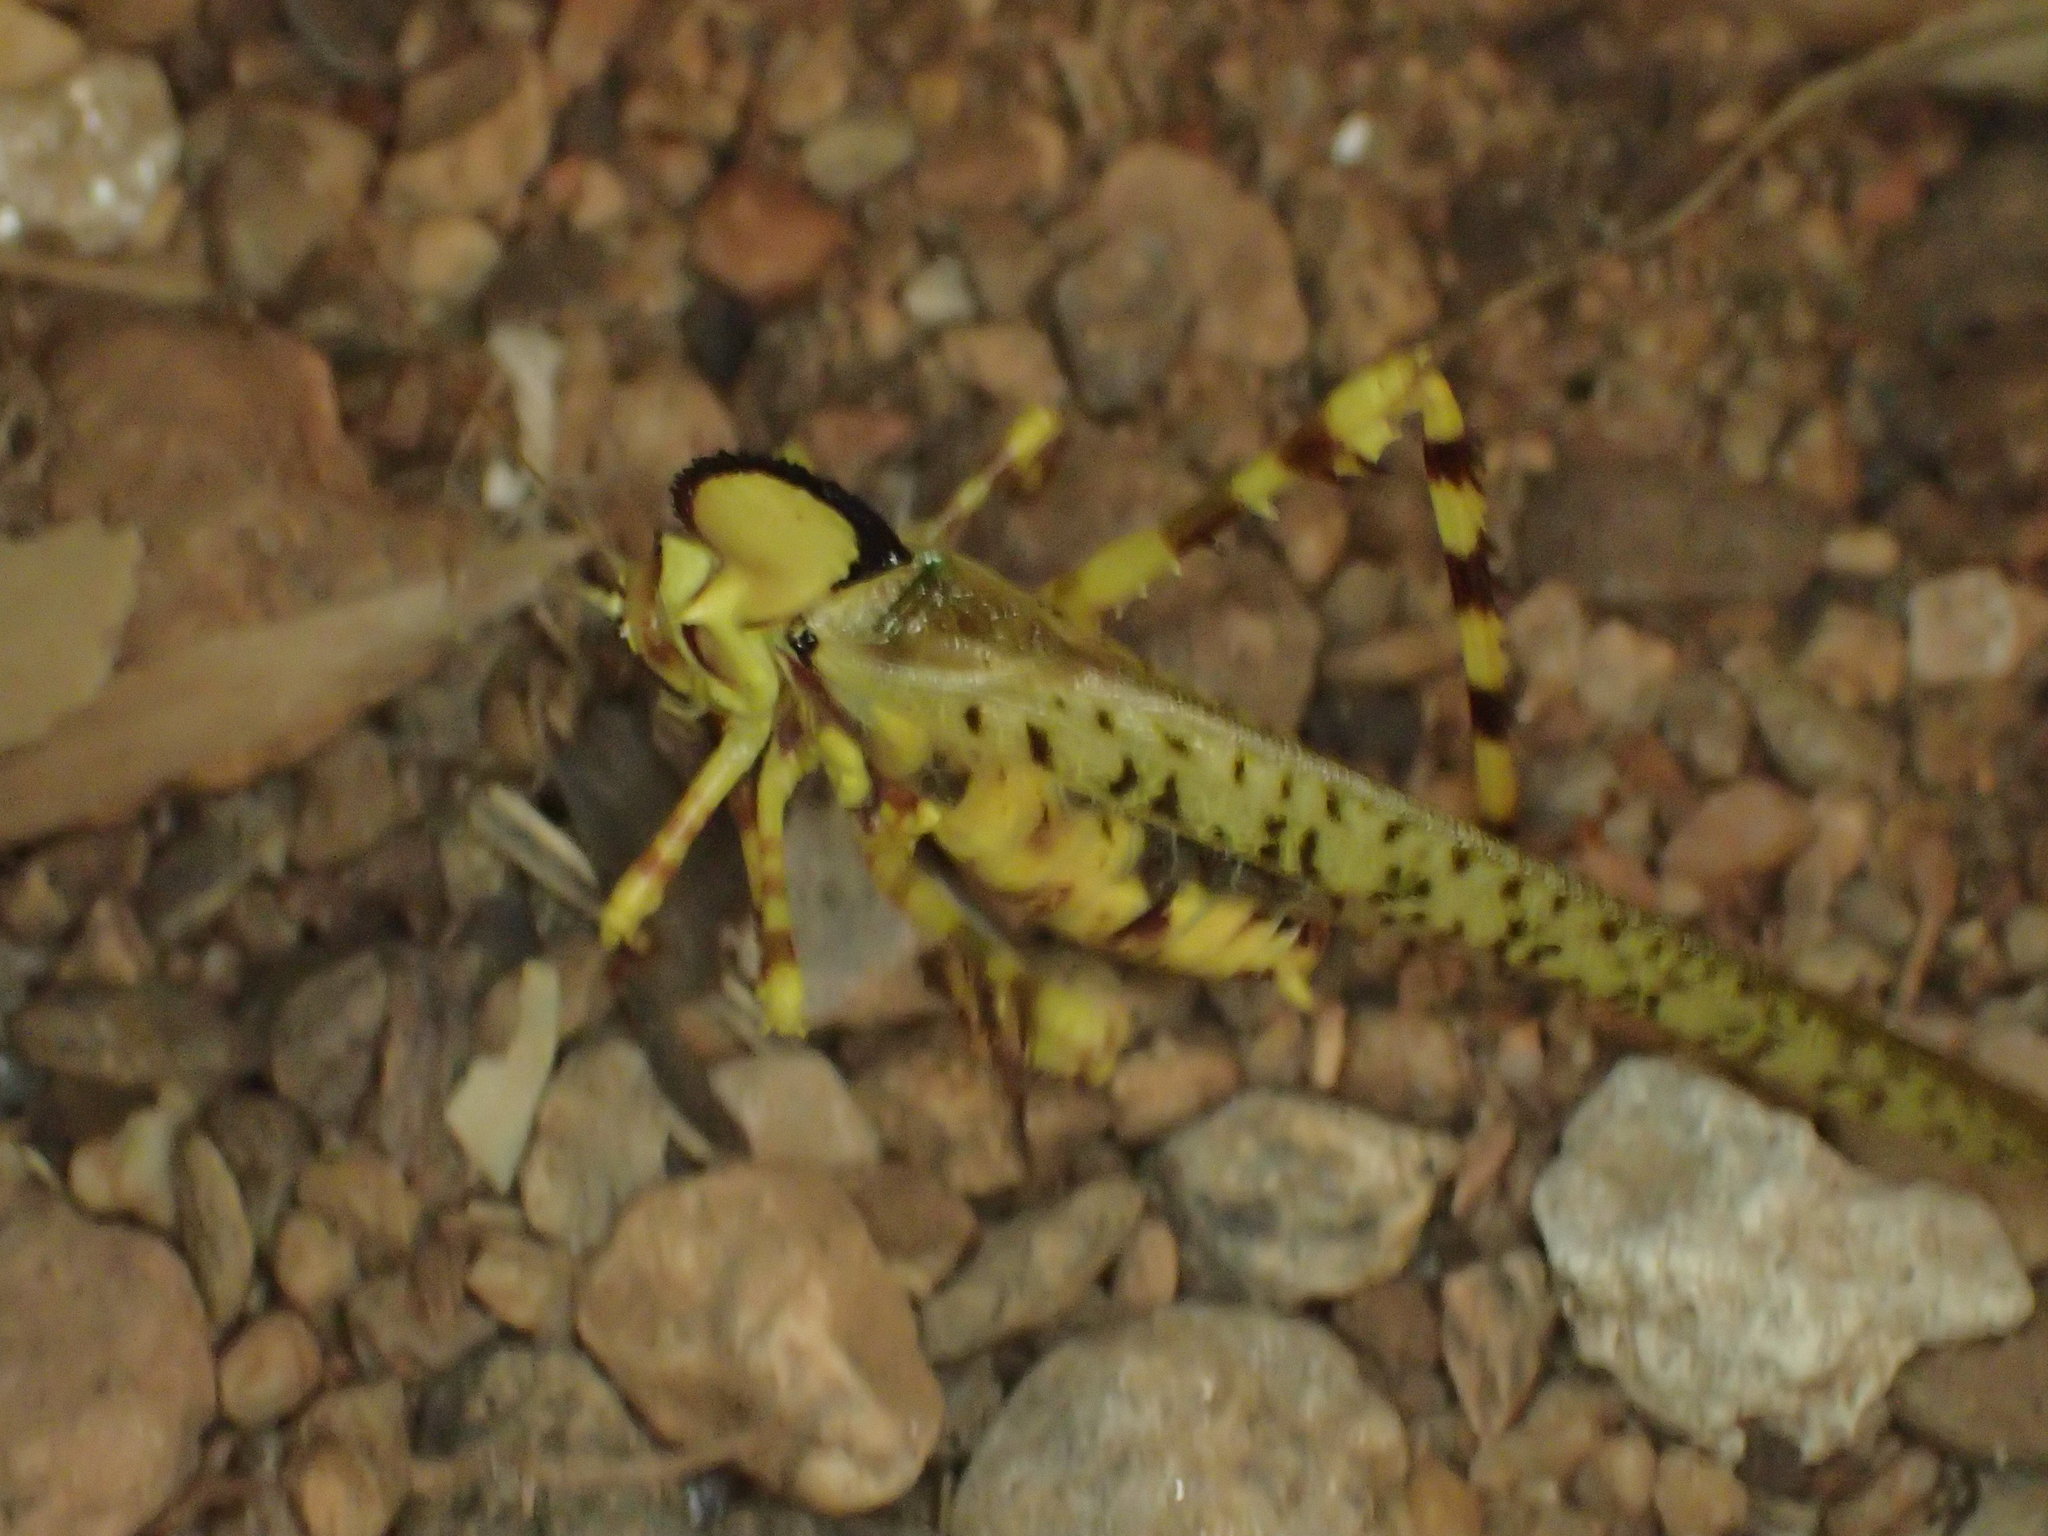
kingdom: Animalia
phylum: Arthropoda
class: Insecta
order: Orthoptera
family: Tettigoniidae
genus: Alectoria
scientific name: Alectoria superba
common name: Australian crested katydid
